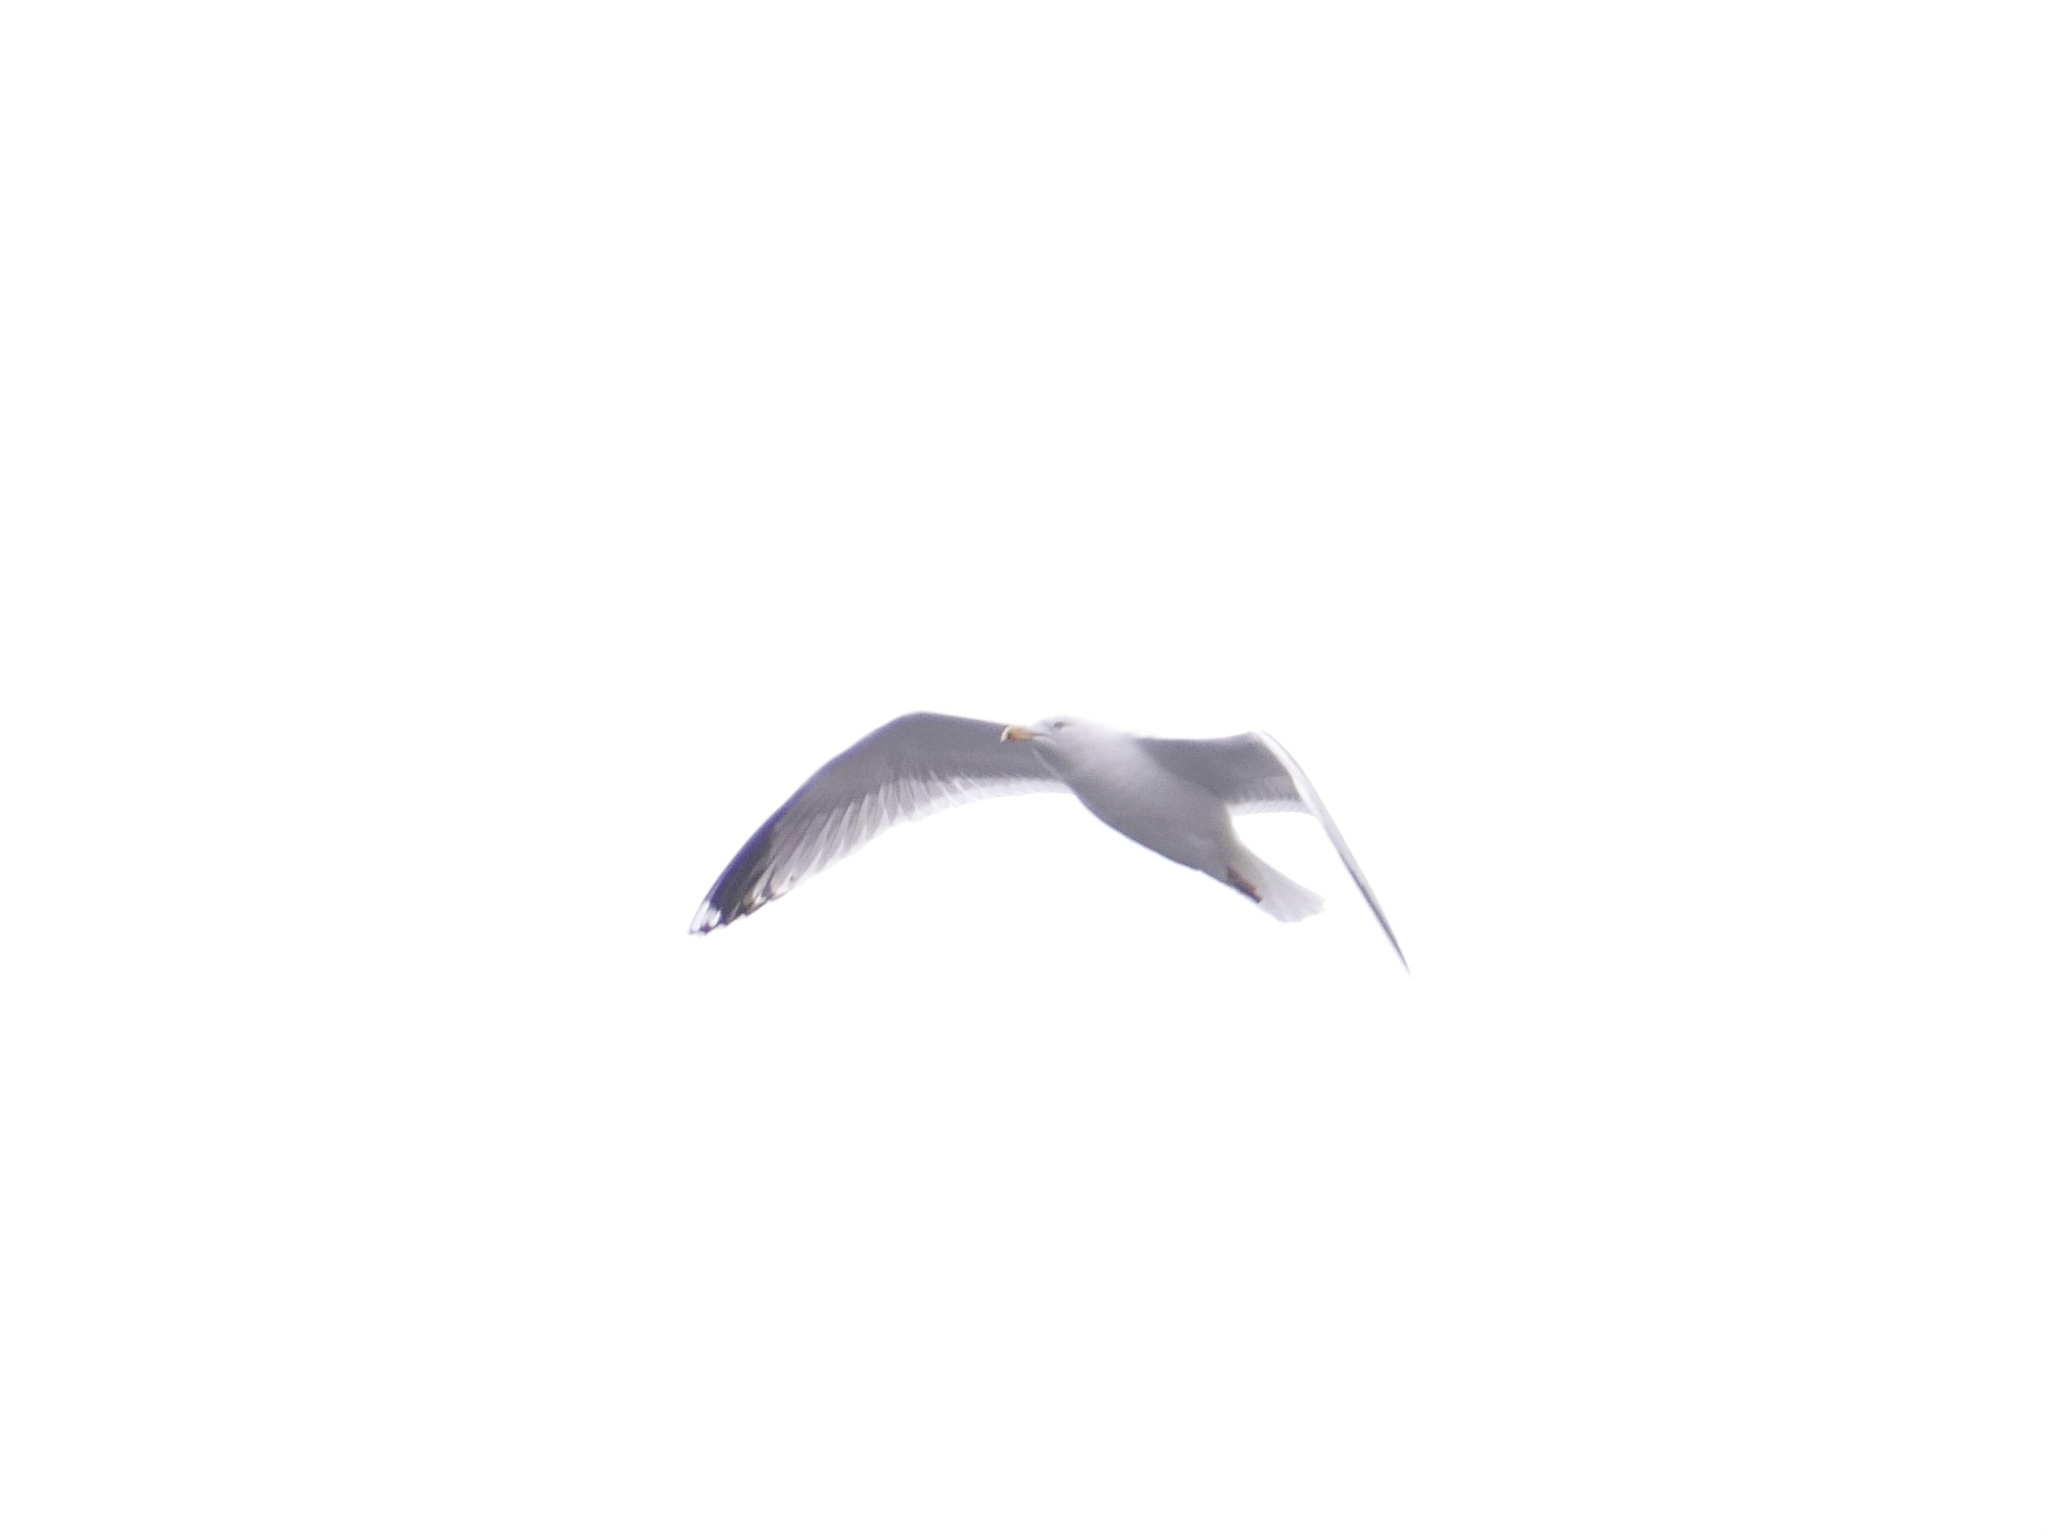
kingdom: Animalia
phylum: Chordata
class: Aves
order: Charadriiformes
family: Laridae
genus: Larus
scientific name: Larus argentatus
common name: Herring gull
